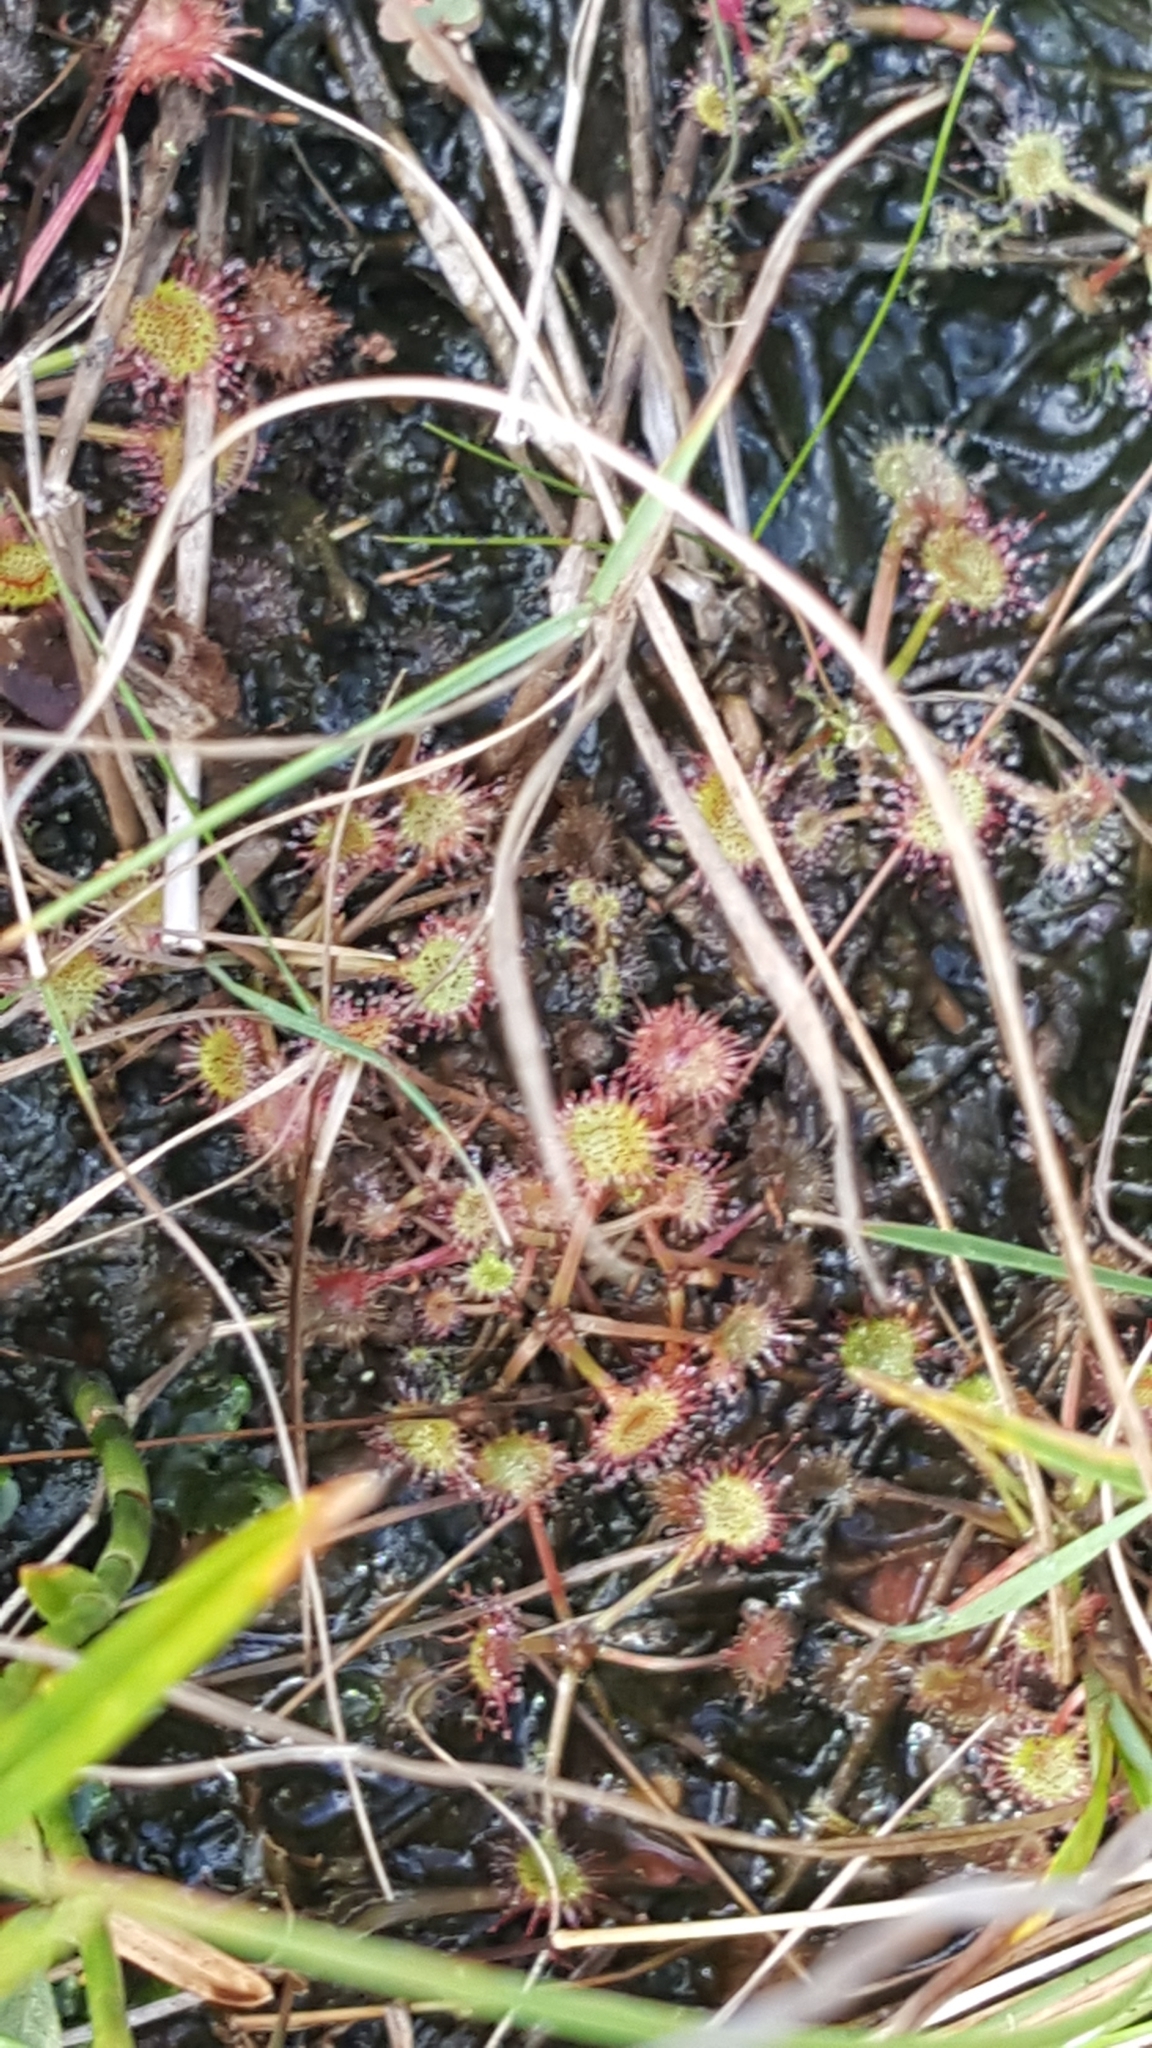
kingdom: Plantae
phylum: Tracheophyta
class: Magnoliopsida
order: Caryophyllales
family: Droseraceae
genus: Drosera
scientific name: Drosera rotundifolia
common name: Round-leaved sundew
